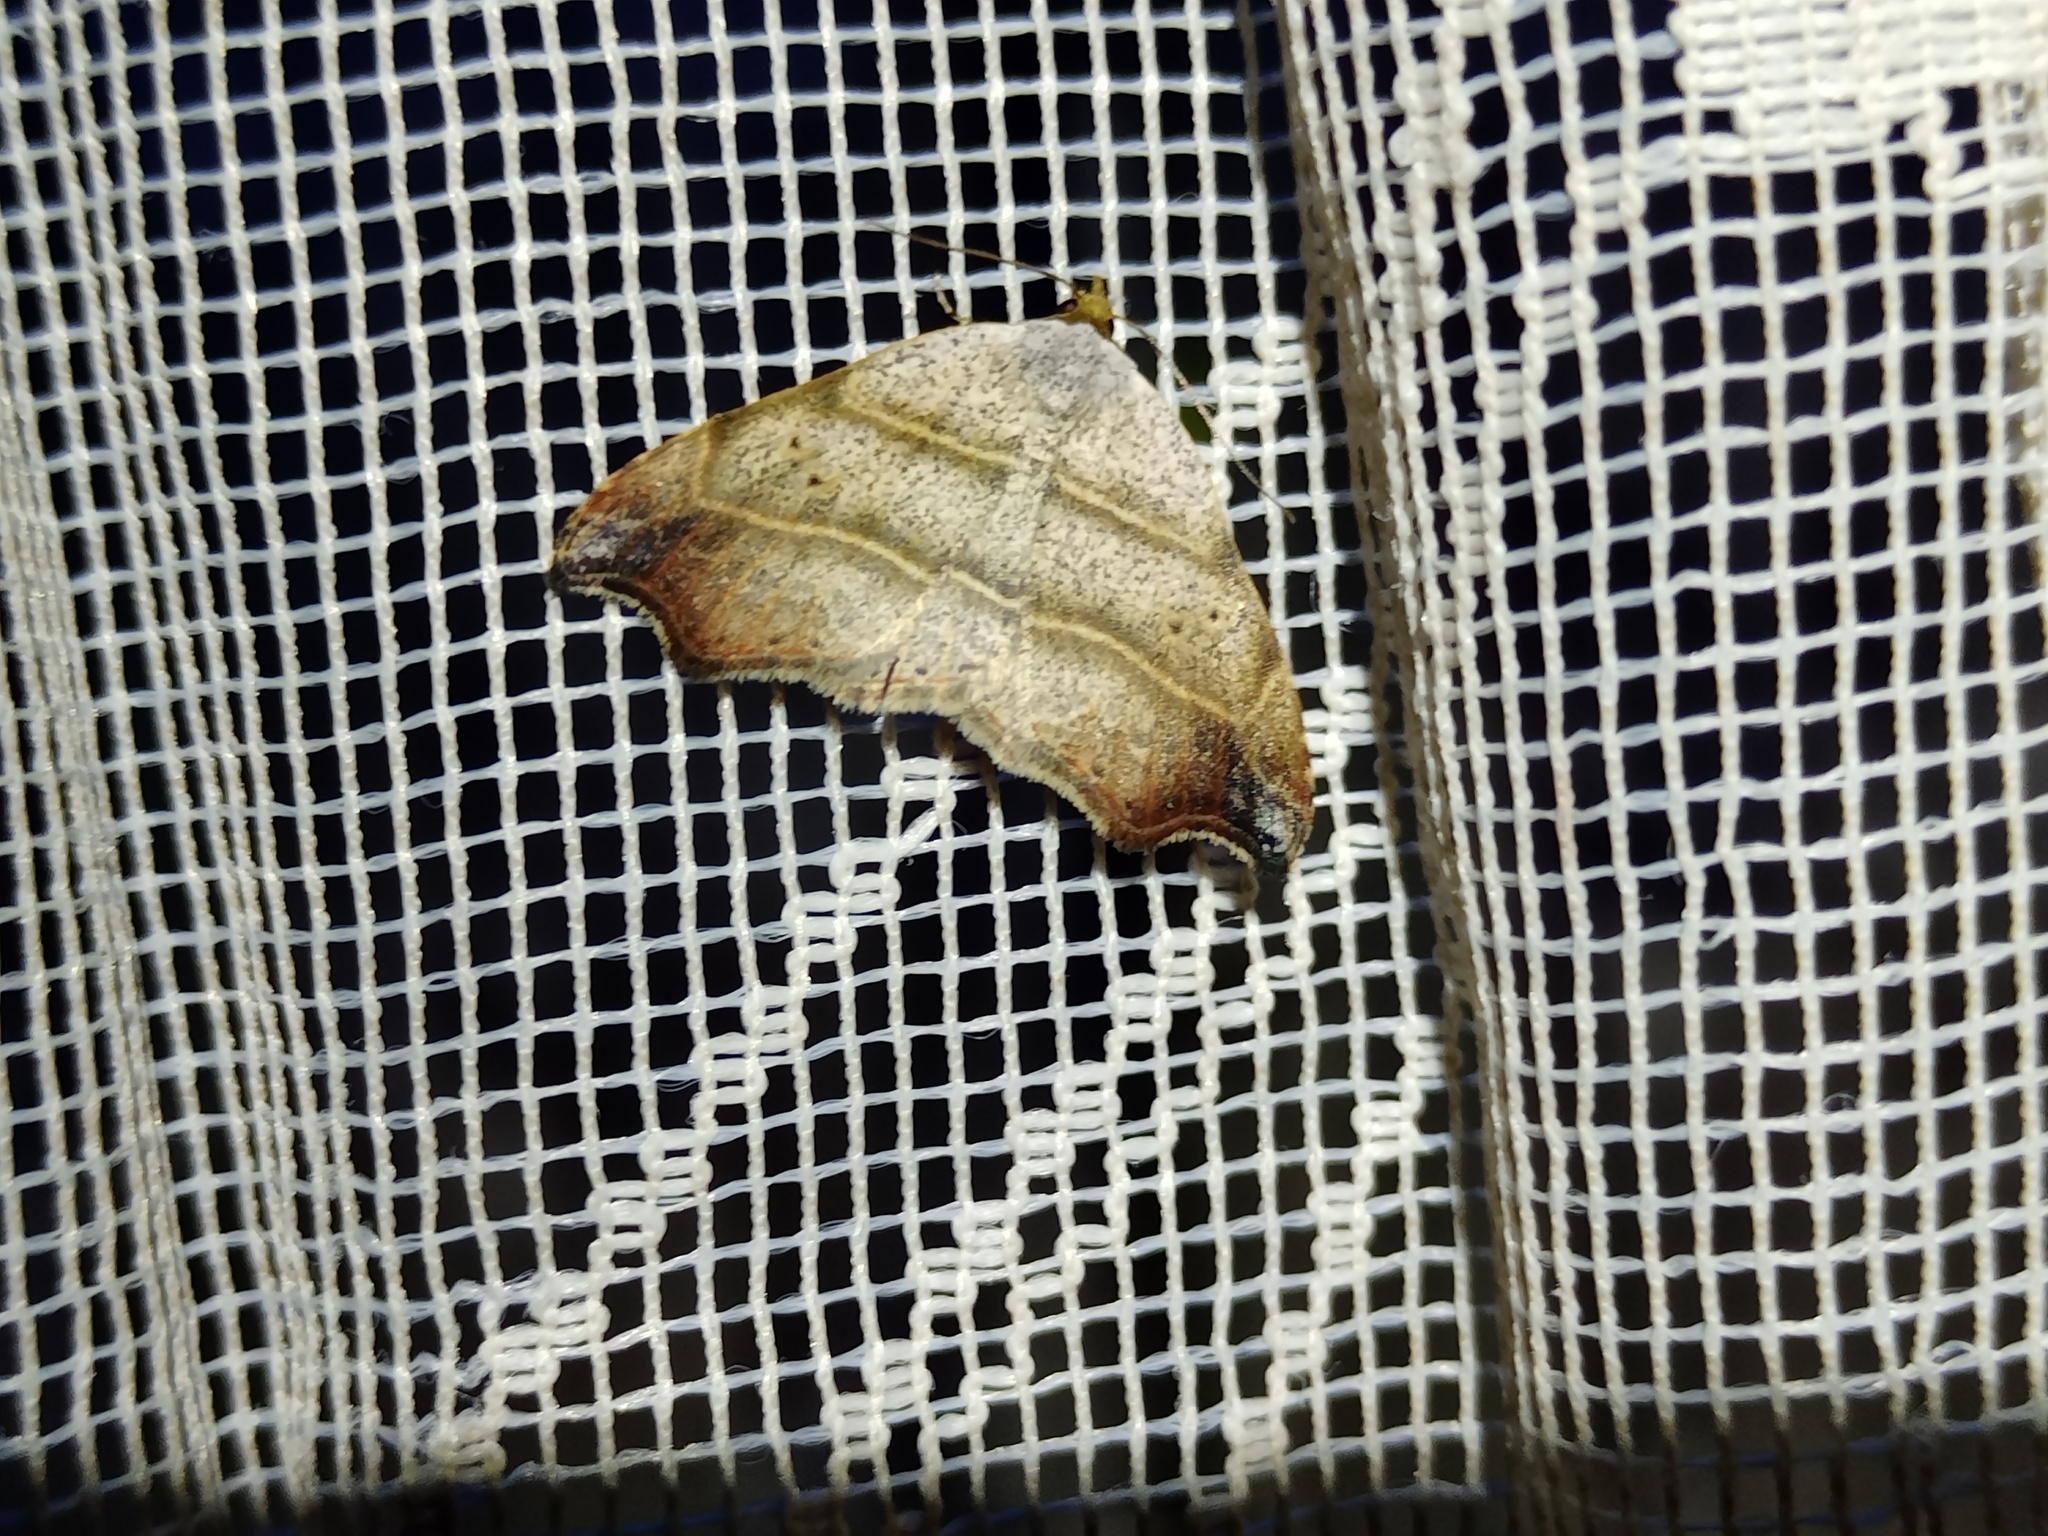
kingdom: Animalia
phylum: Arthropoda
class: Insecta
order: Lepidoptera
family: Erebidae
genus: Laspeyria
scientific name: Laspeyria flexula
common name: Beautiful hook-tip
